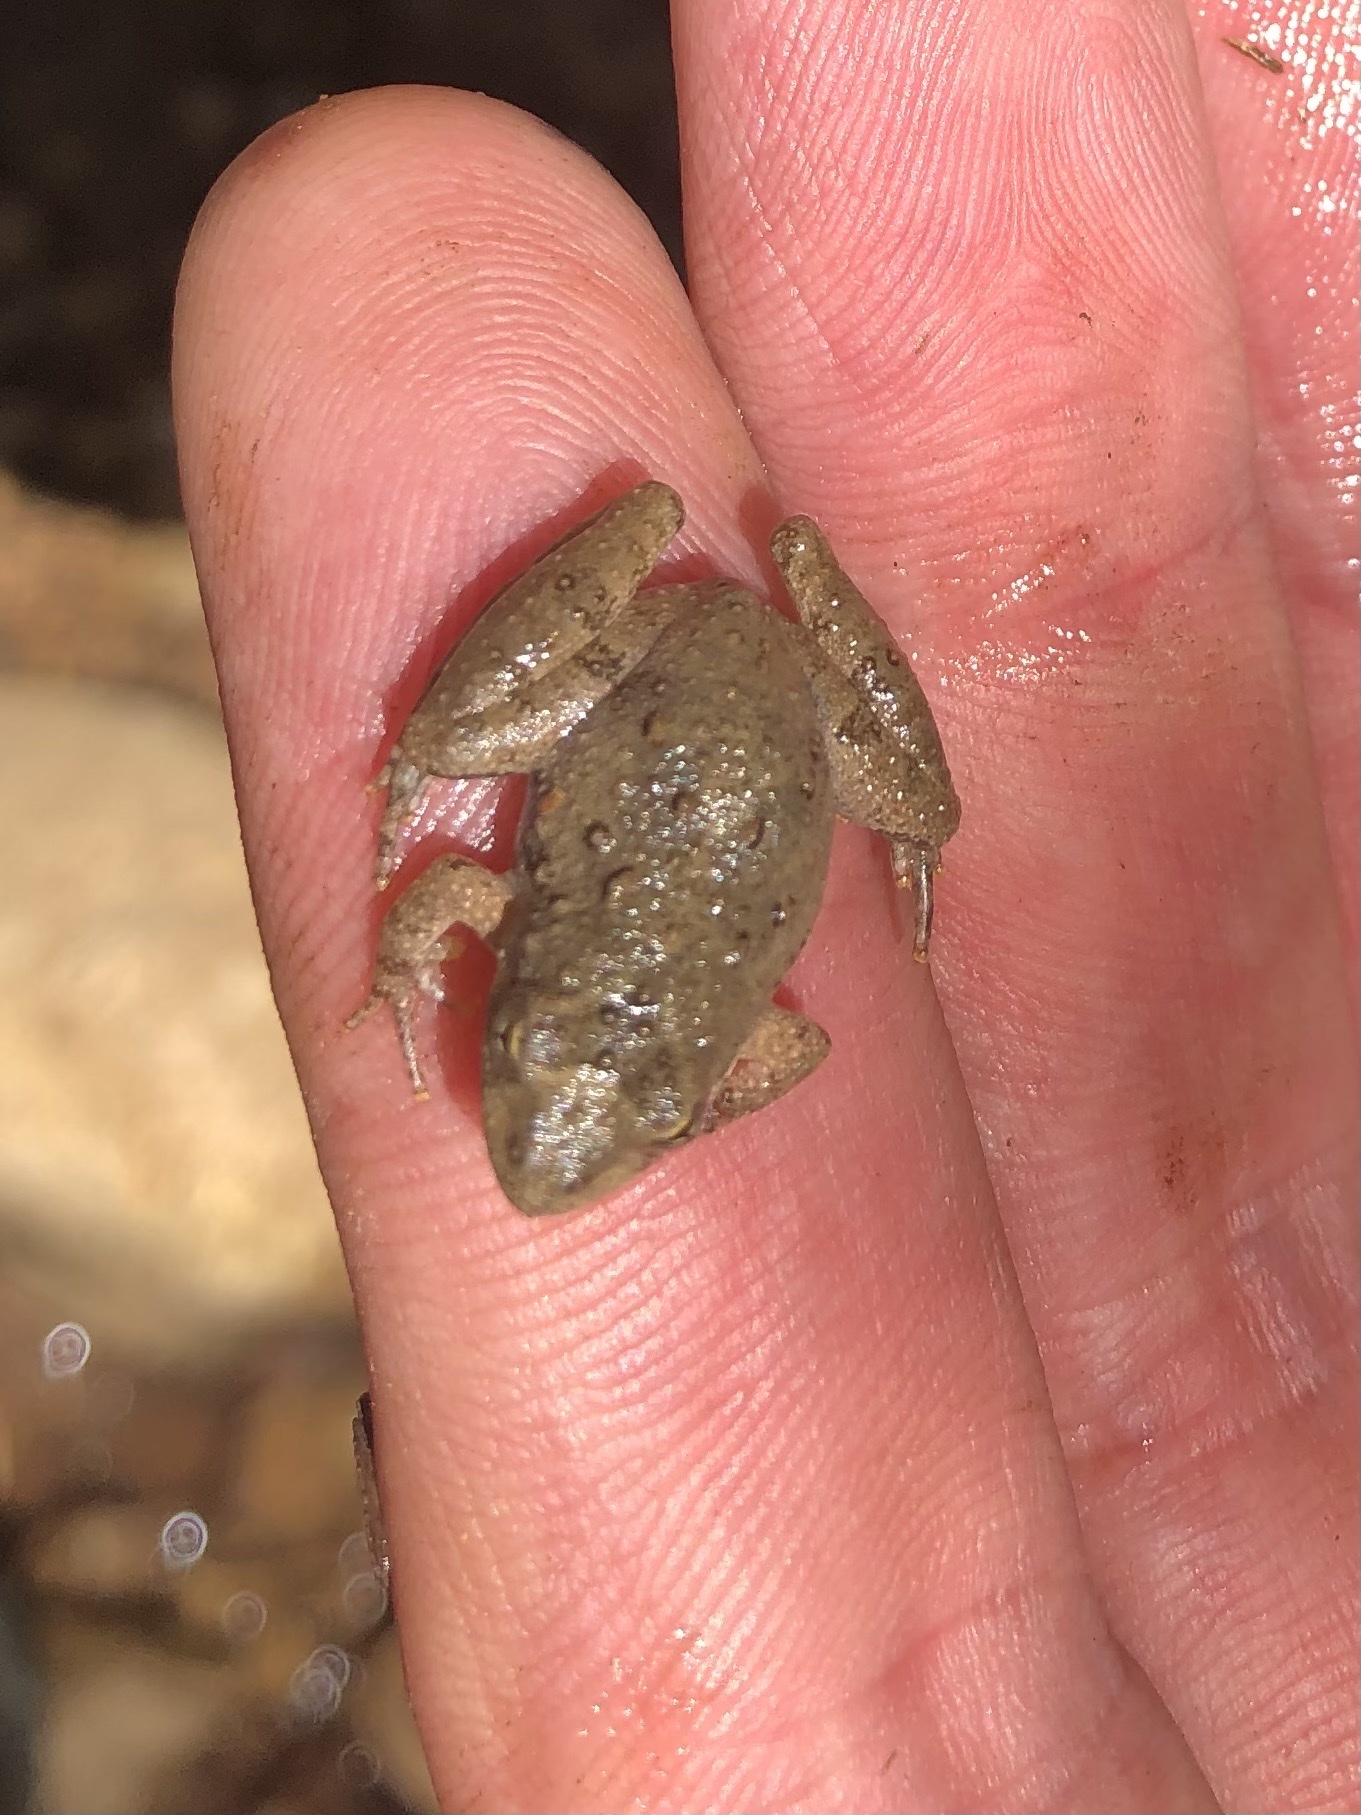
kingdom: Animalia
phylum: Chordata
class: Amphibia
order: Anura
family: Hylidae
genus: Acris
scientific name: Acris blanchardi
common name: Blanchard's cricket frog
